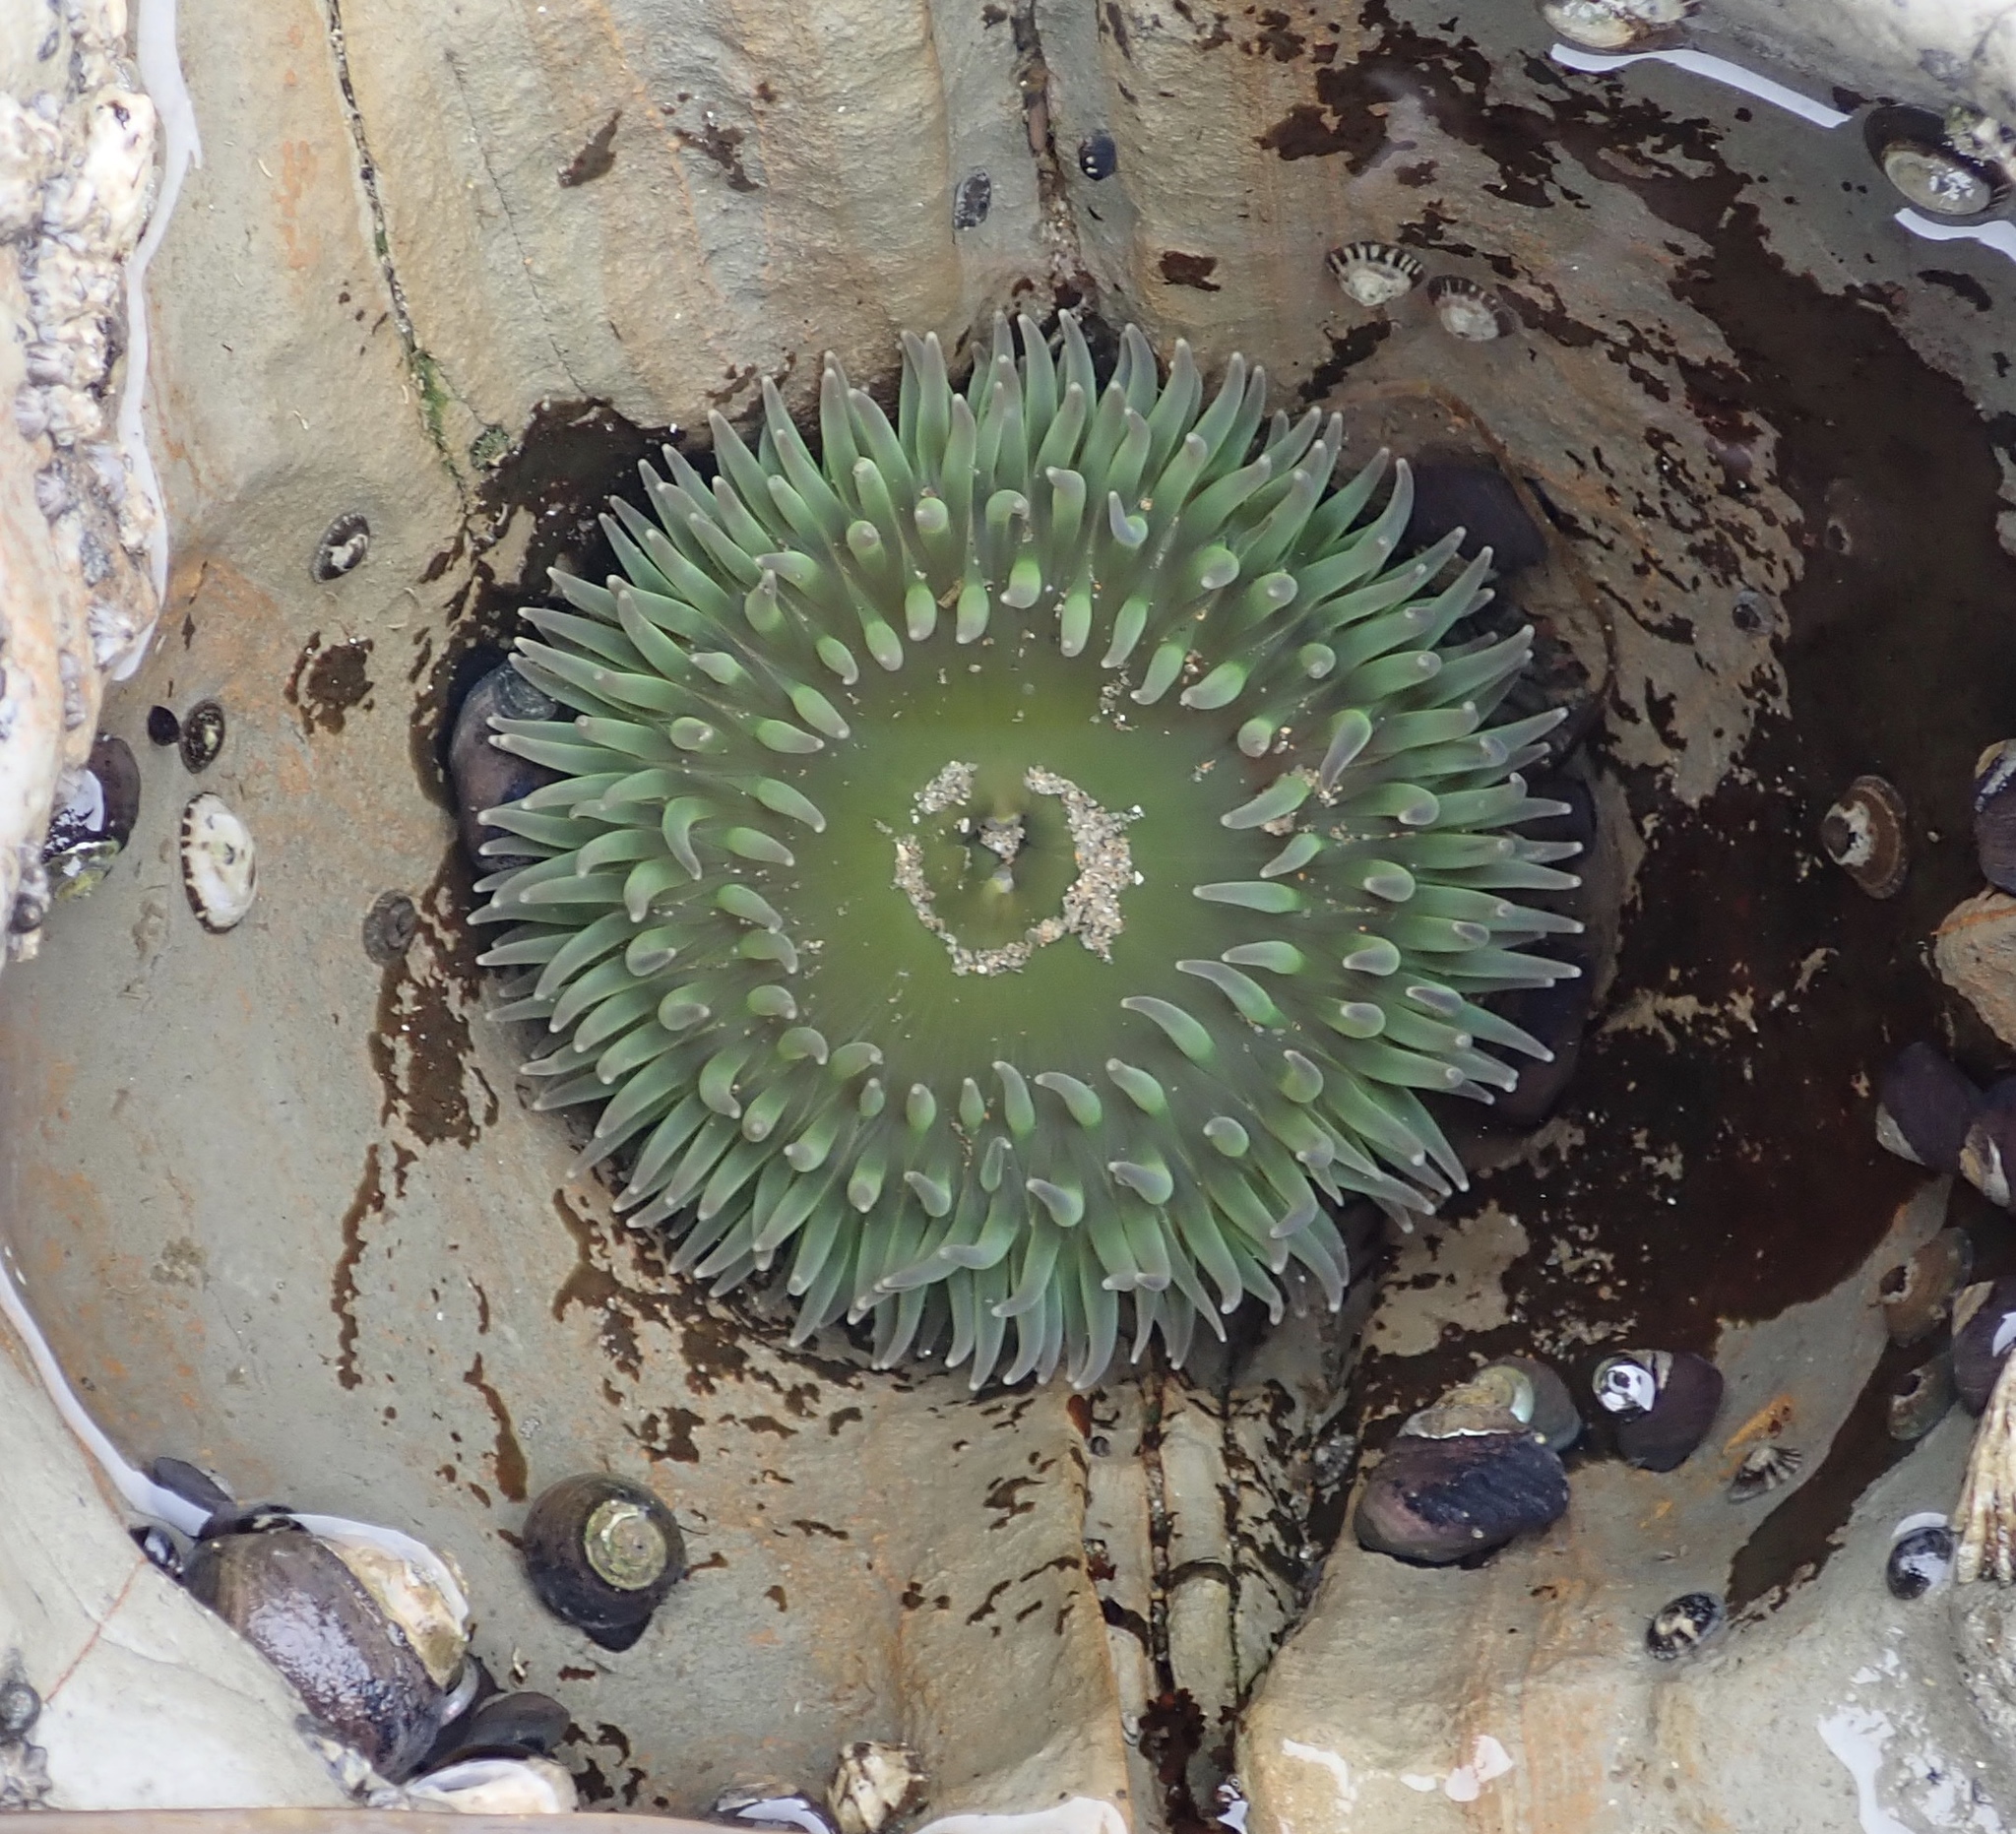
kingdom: Animalia
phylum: Cnidaria
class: Anthozoa
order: Actiniaria
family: Actiniidae
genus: Anthopleura
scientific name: Anthopleura xanthogrammica
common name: Giant green anemone
